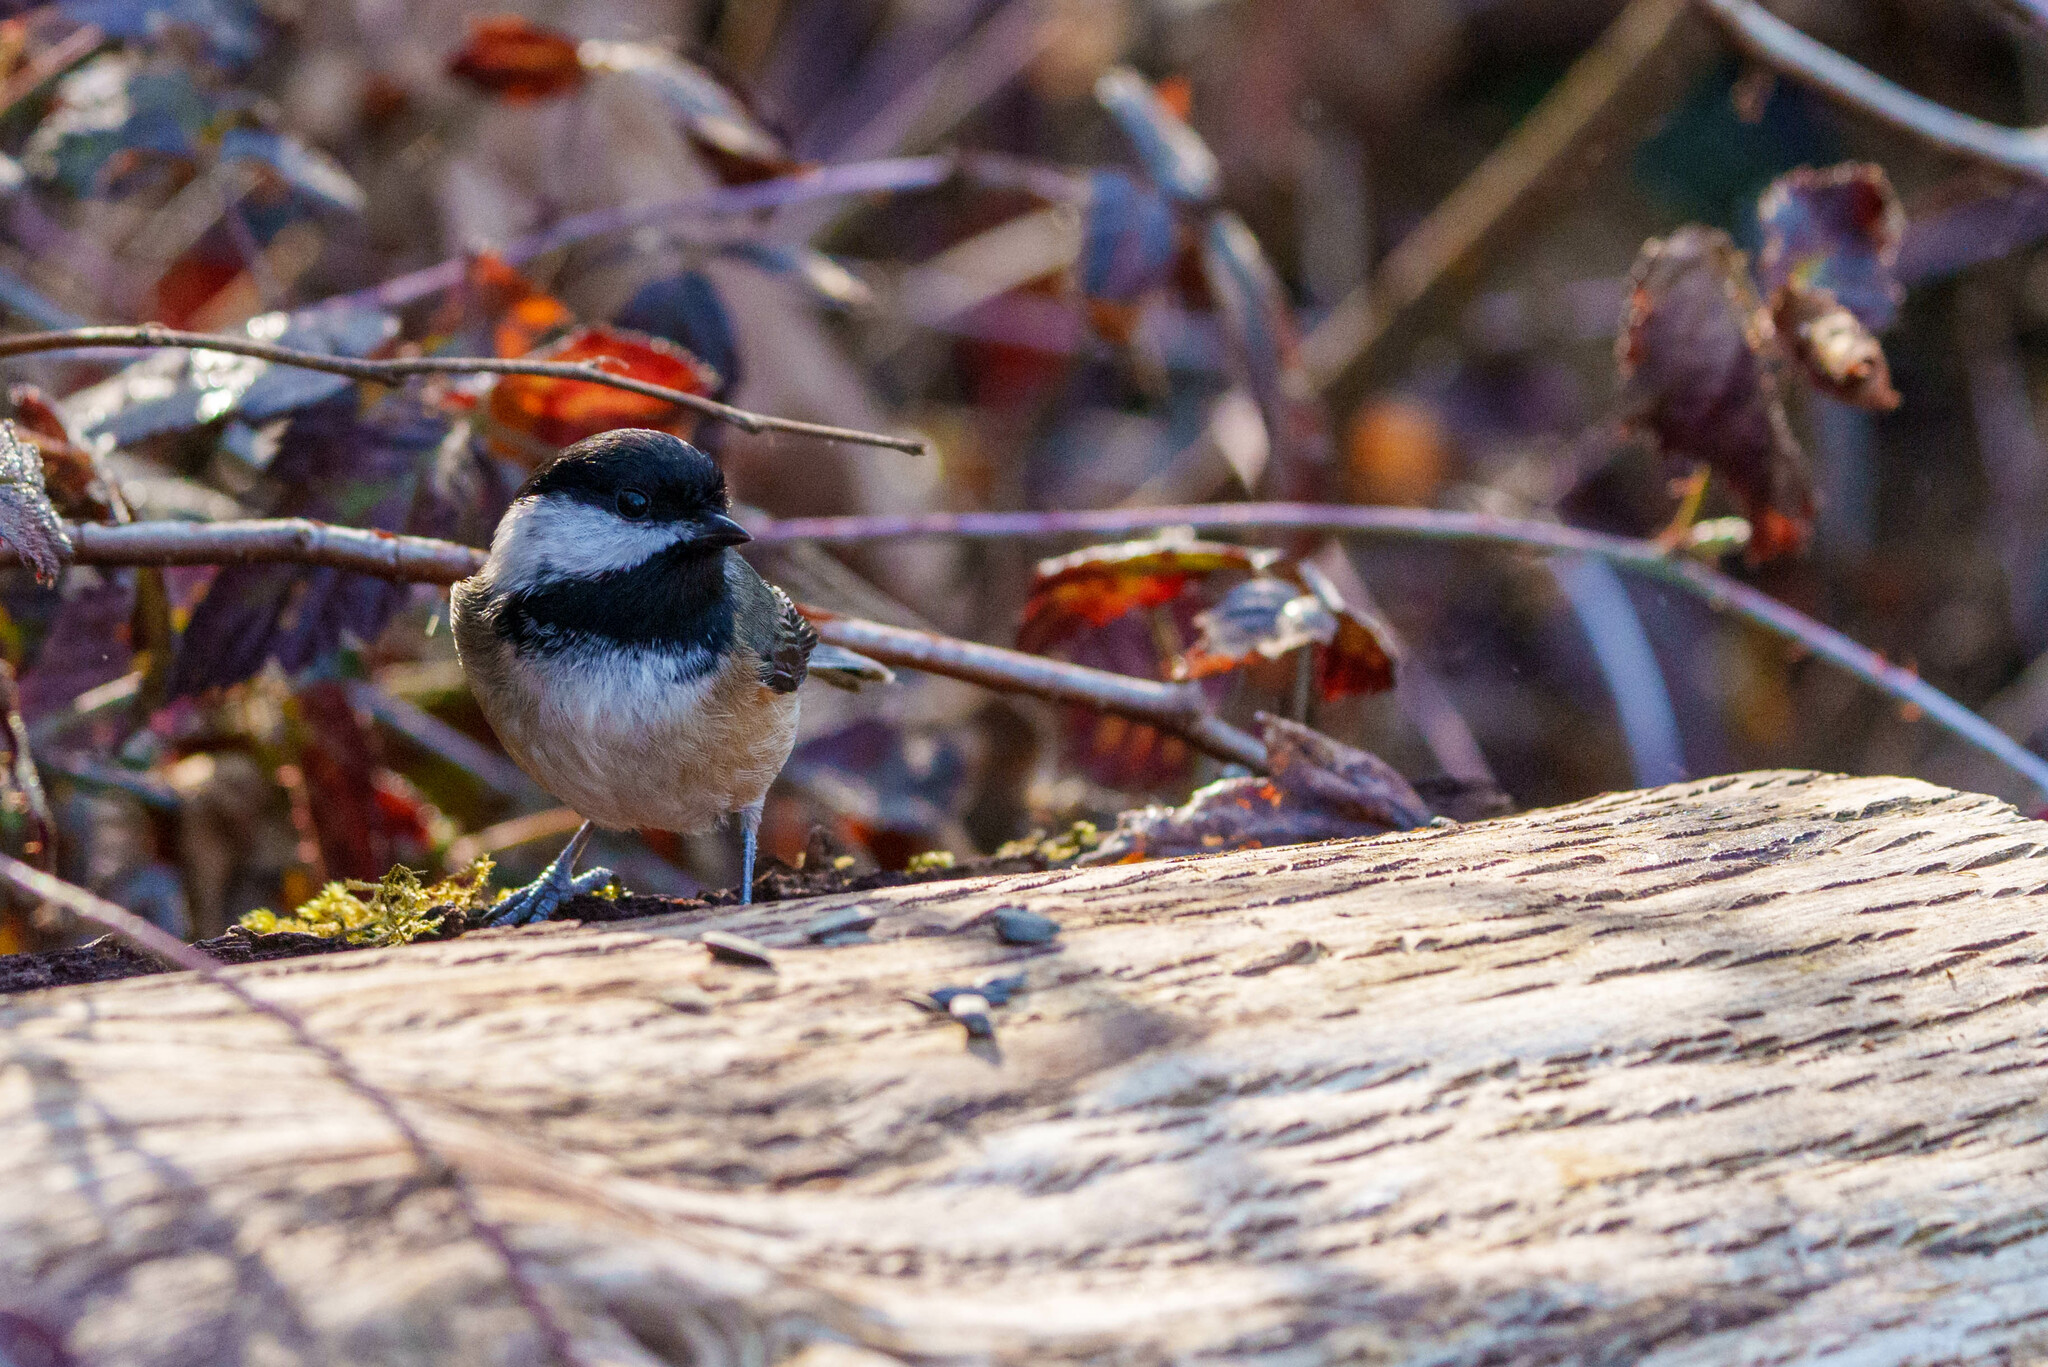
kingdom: Animalia
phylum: Chordata
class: Aves
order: Passeriformes
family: Paridae
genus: Poecile
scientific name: Poecile atricapillus
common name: Black-capped chickadee
